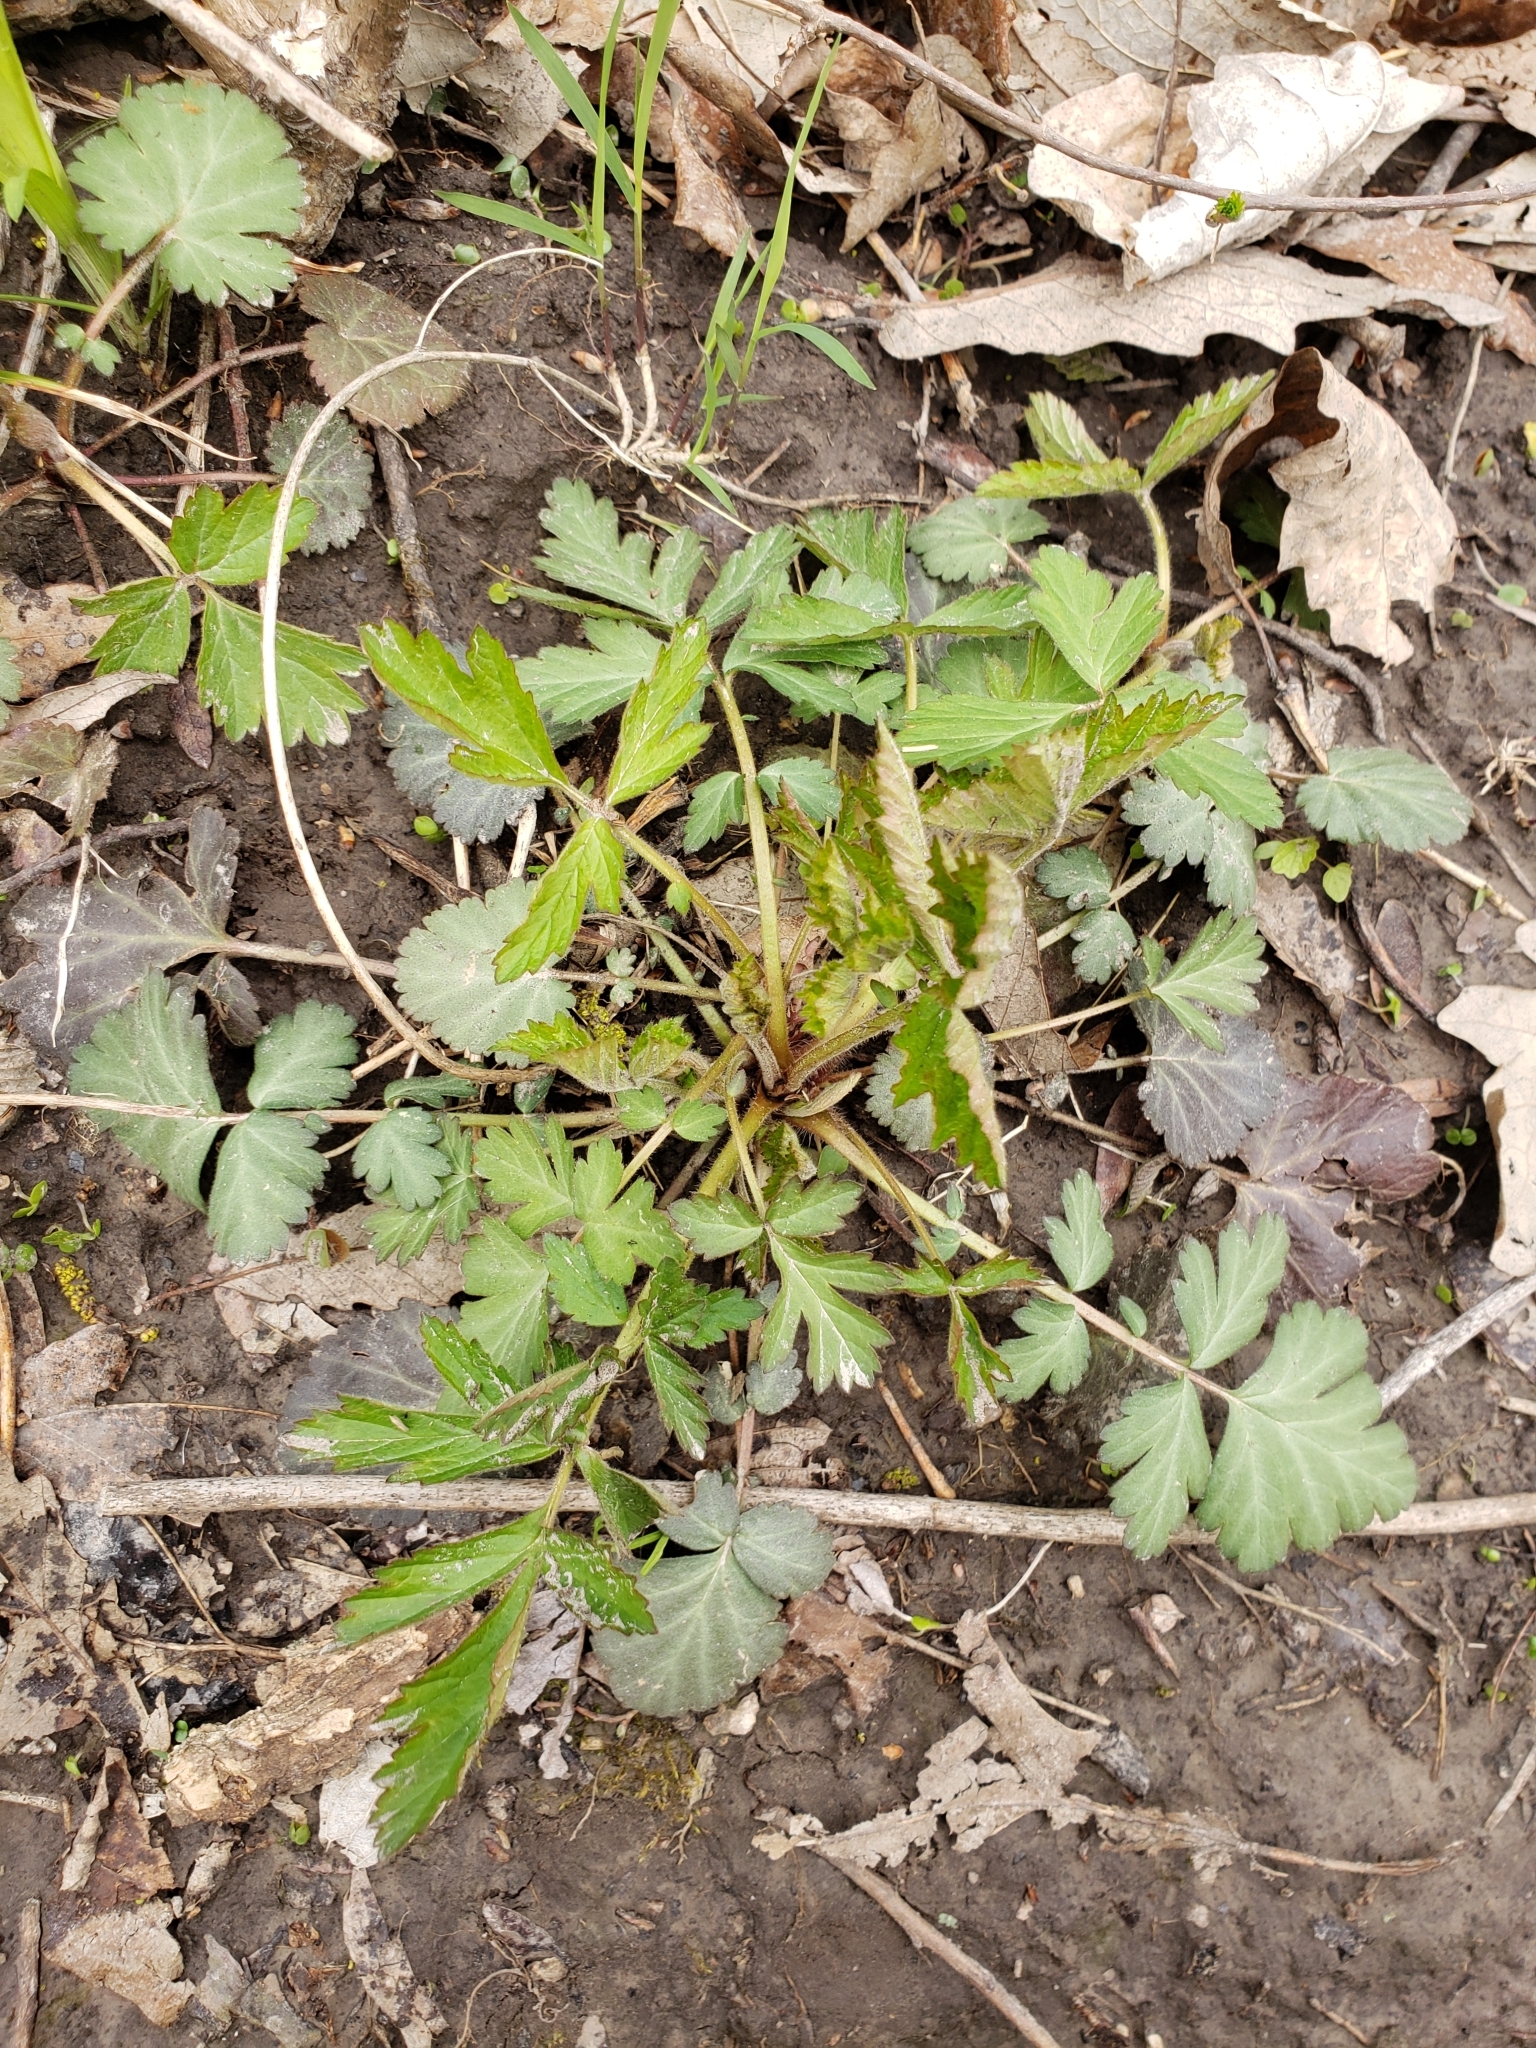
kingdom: Plantae
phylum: Tracheophyta
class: Magnoliopsida
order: Rosales
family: Rosaceae
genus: Geum
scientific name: Geum canadense
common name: White avens
